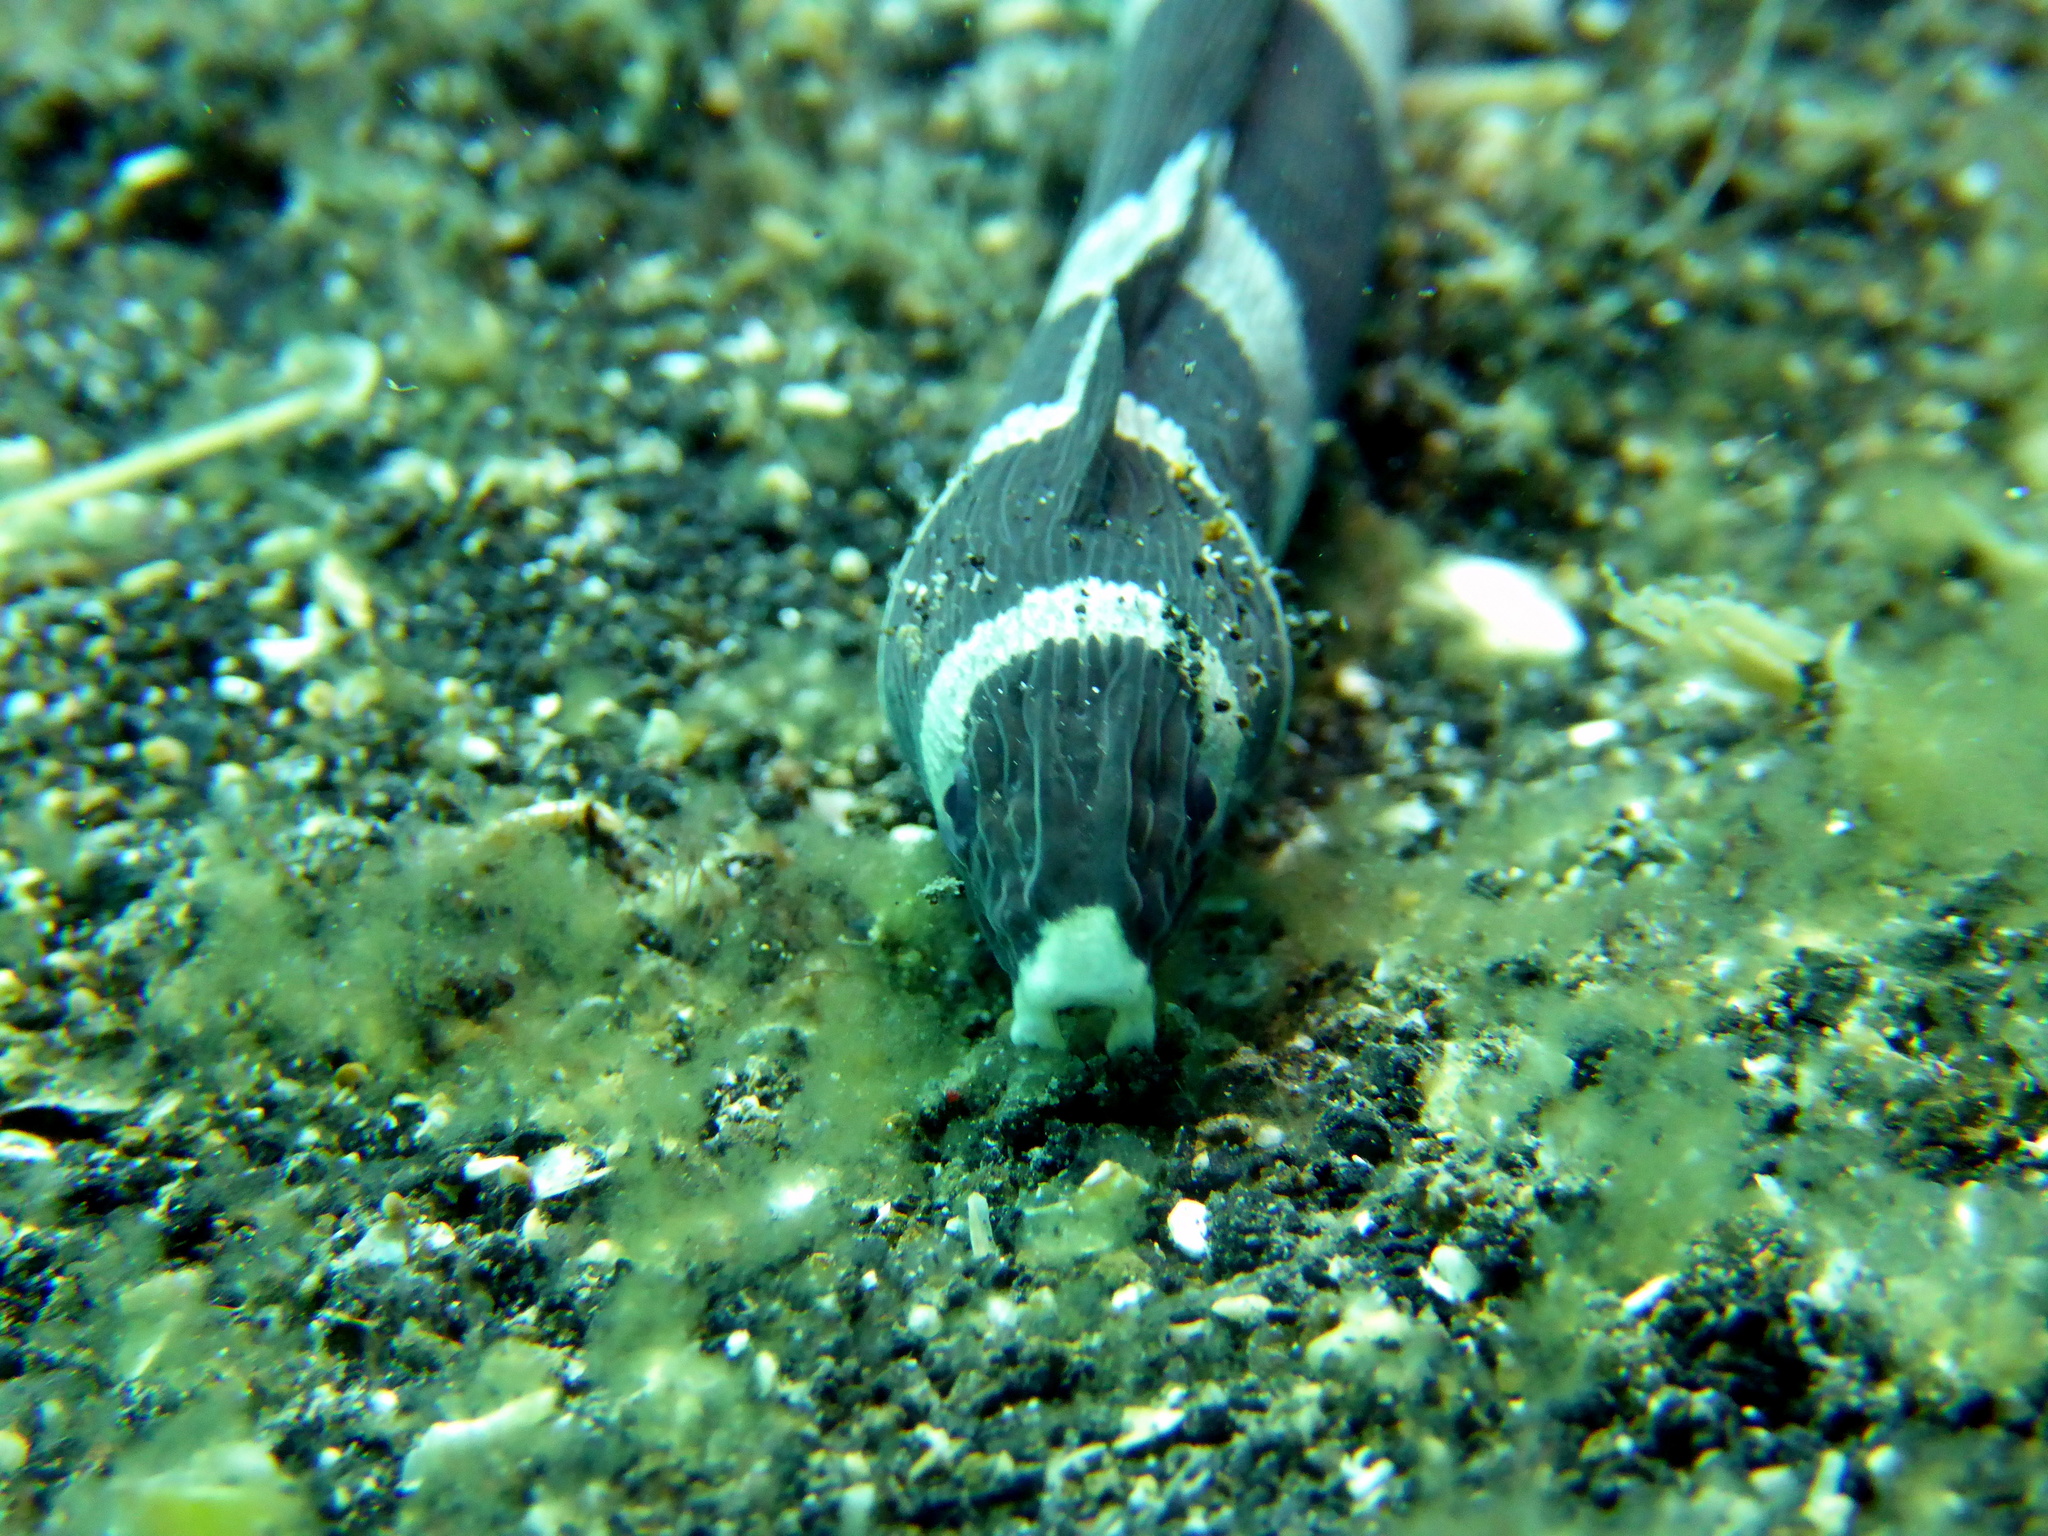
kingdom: Animalia
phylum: Chordata
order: Anguilliformes
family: Ophichthidae
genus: Leiuranus
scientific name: Leiuranus semicinctus
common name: Saddled snake eel
